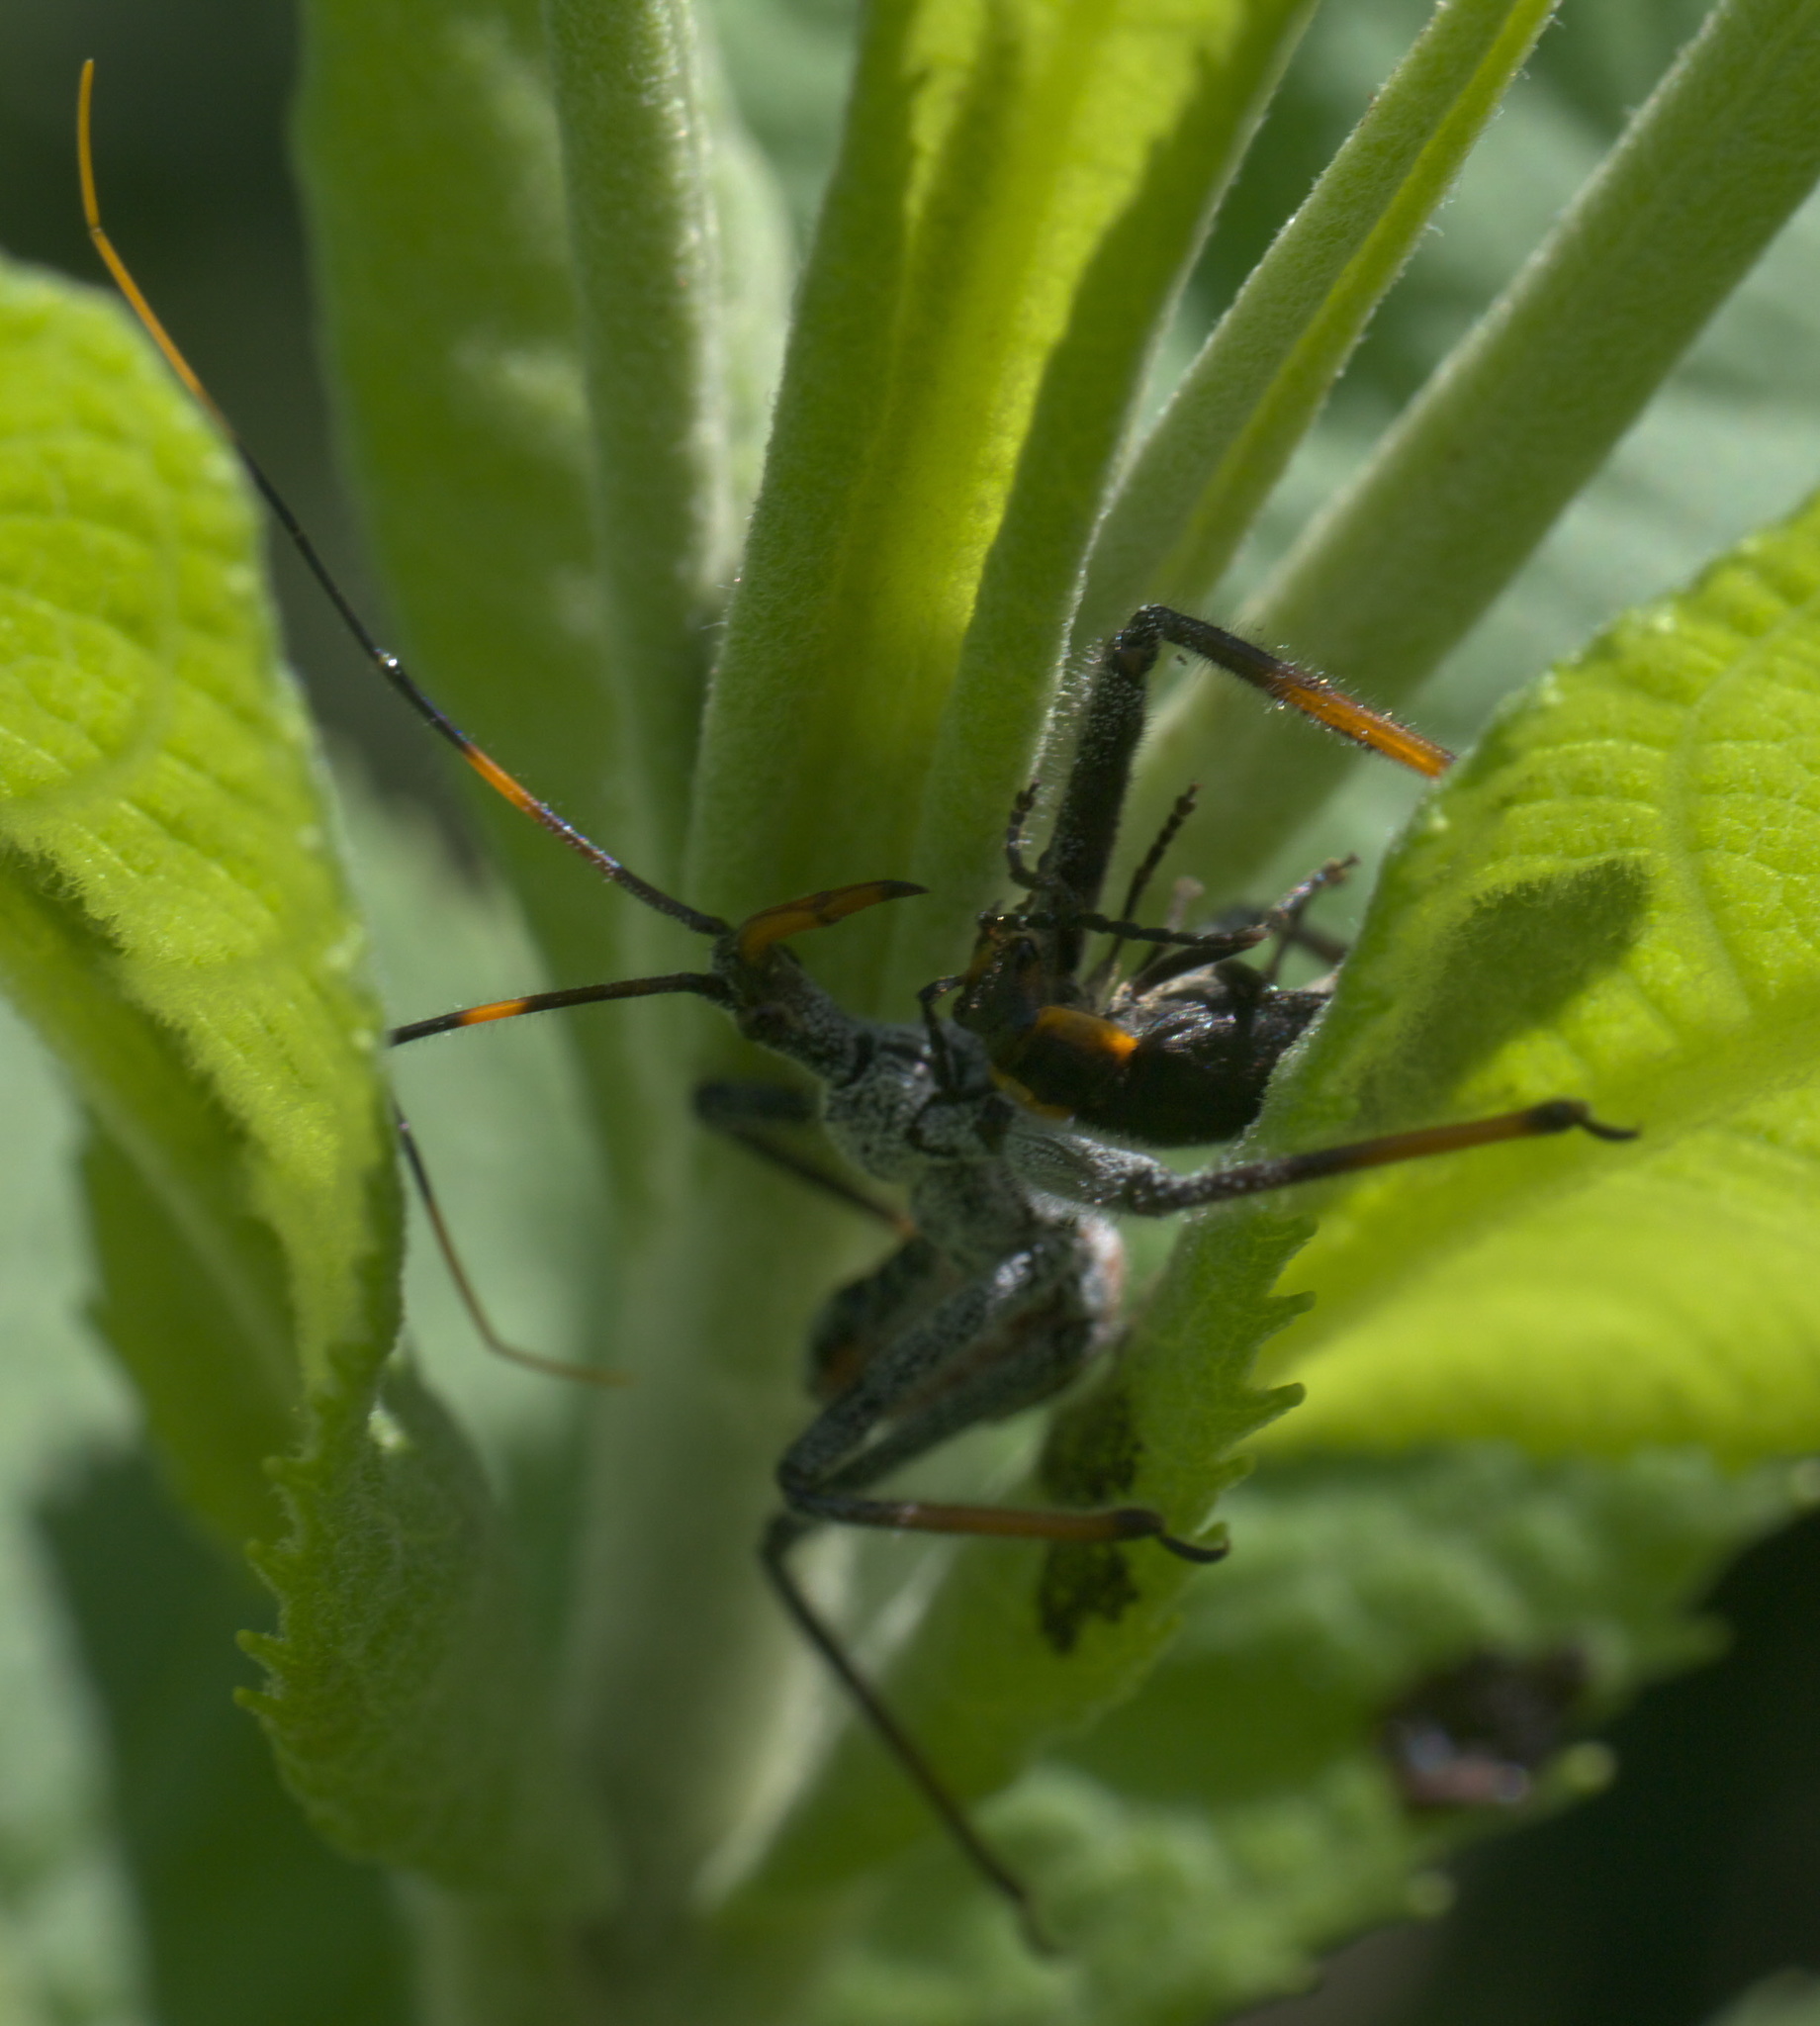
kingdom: Animalia
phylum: Arthropoda
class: Insecta
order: Hemiptera
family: Reduviidae
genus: Arilus
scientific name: Arilus cristatus
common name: North american wheel bug
